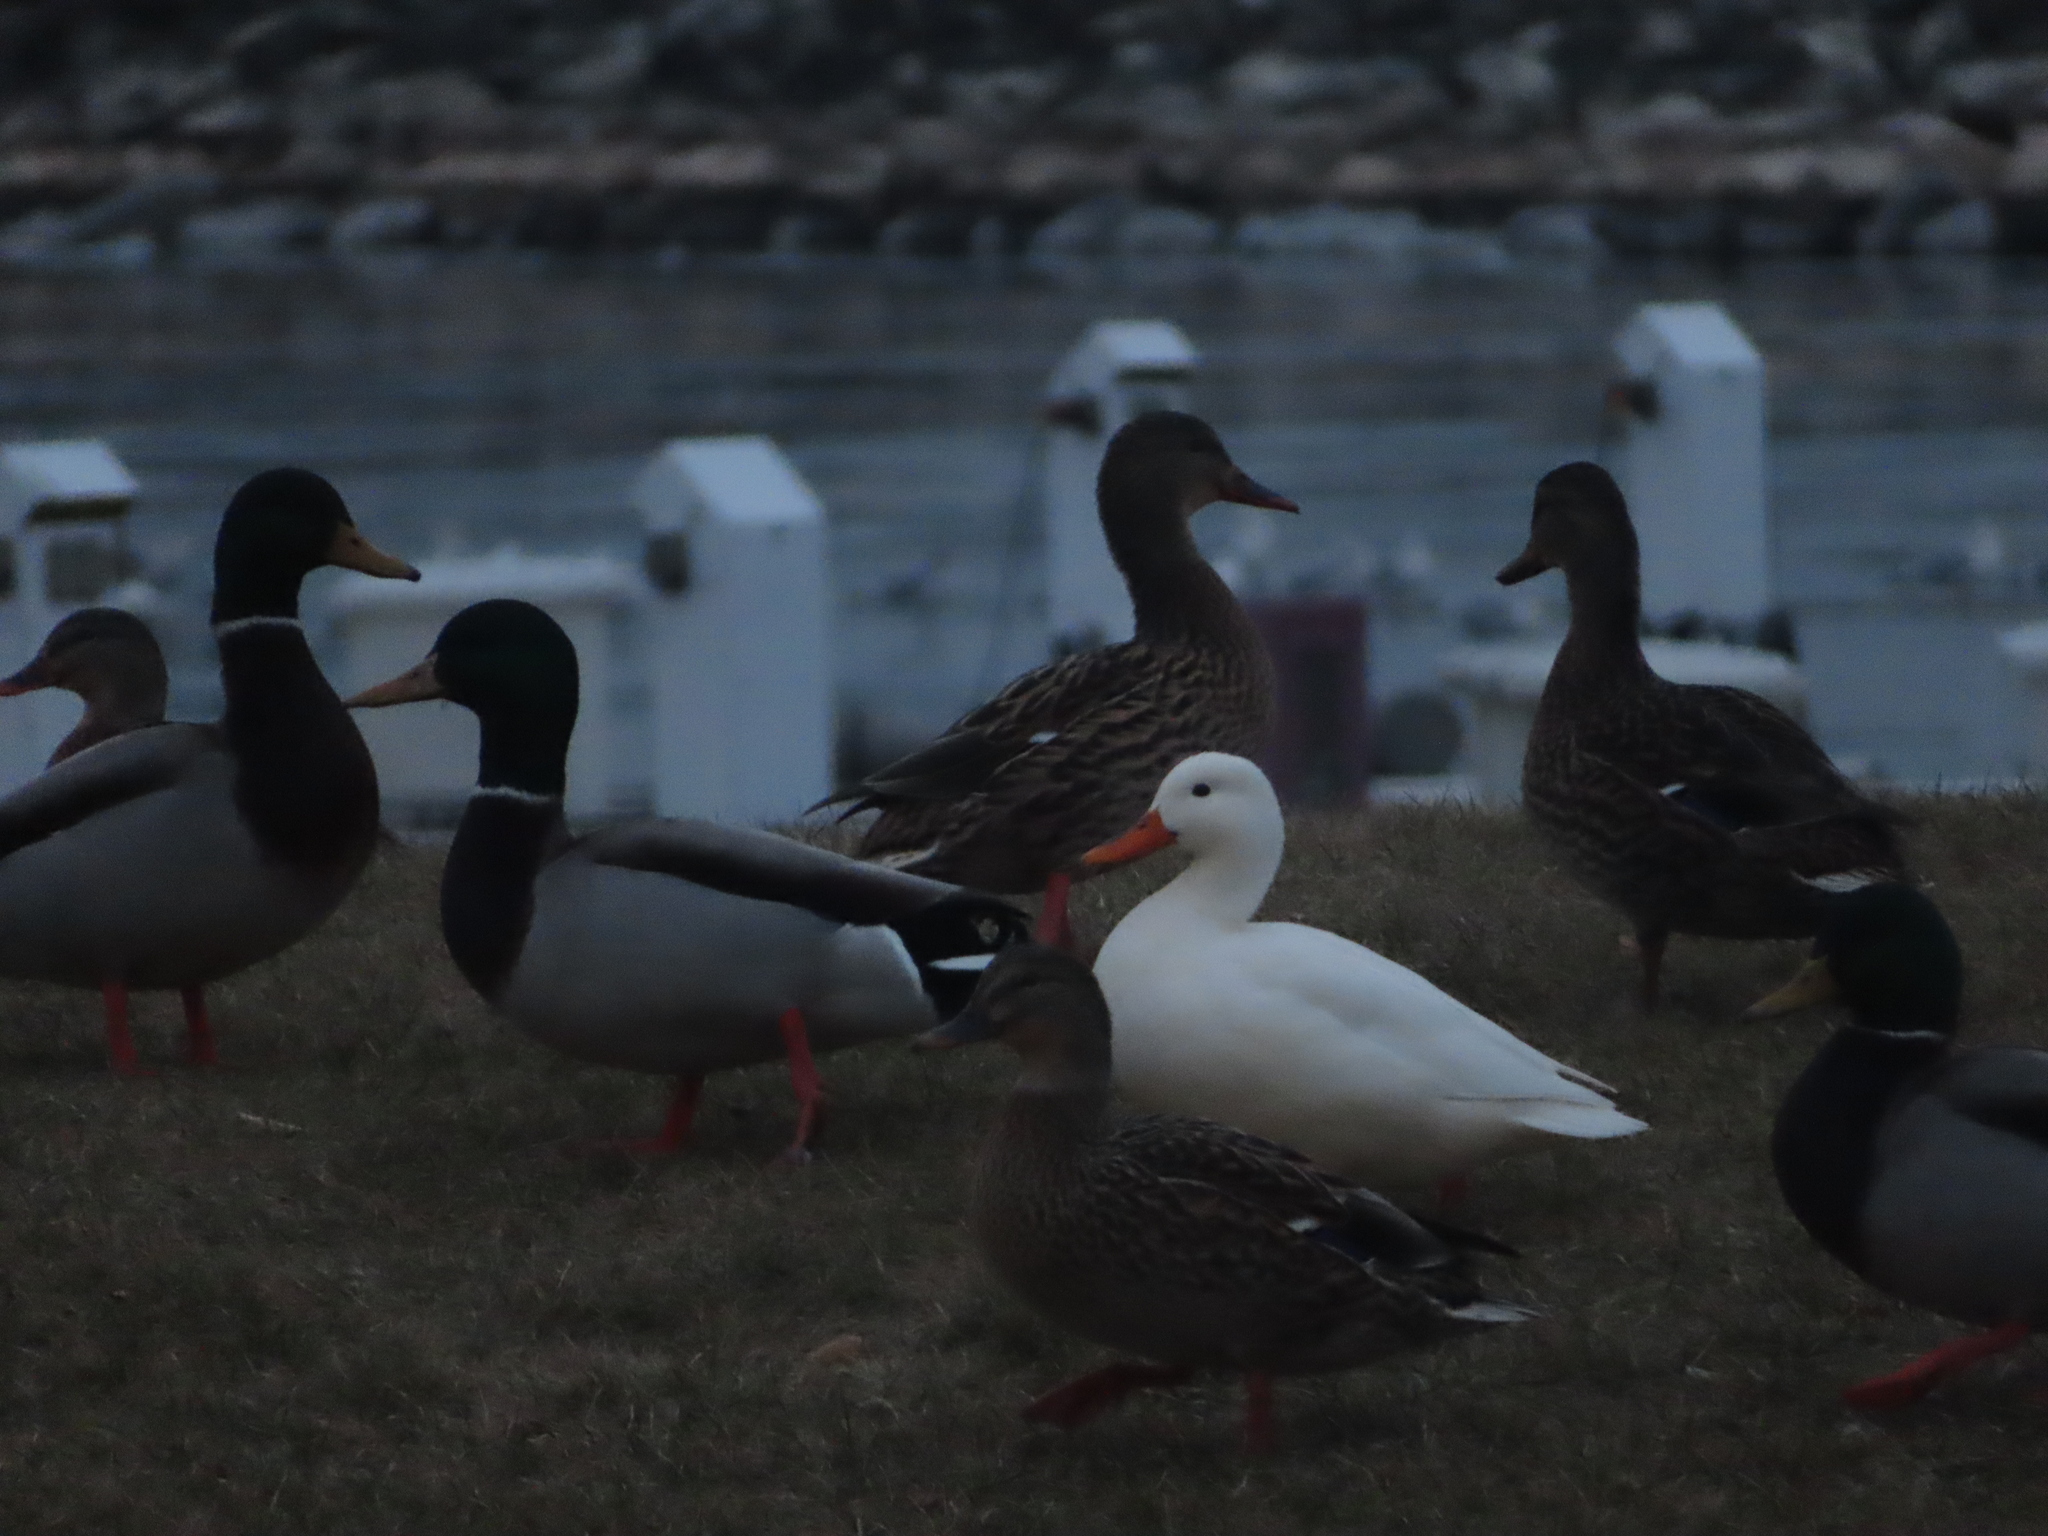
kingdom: Animalia
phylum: Chordata
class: Aves
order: Anseriformes
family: Anatidae
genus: Anas
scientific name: Anas platyrhynchos
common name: Mallard
